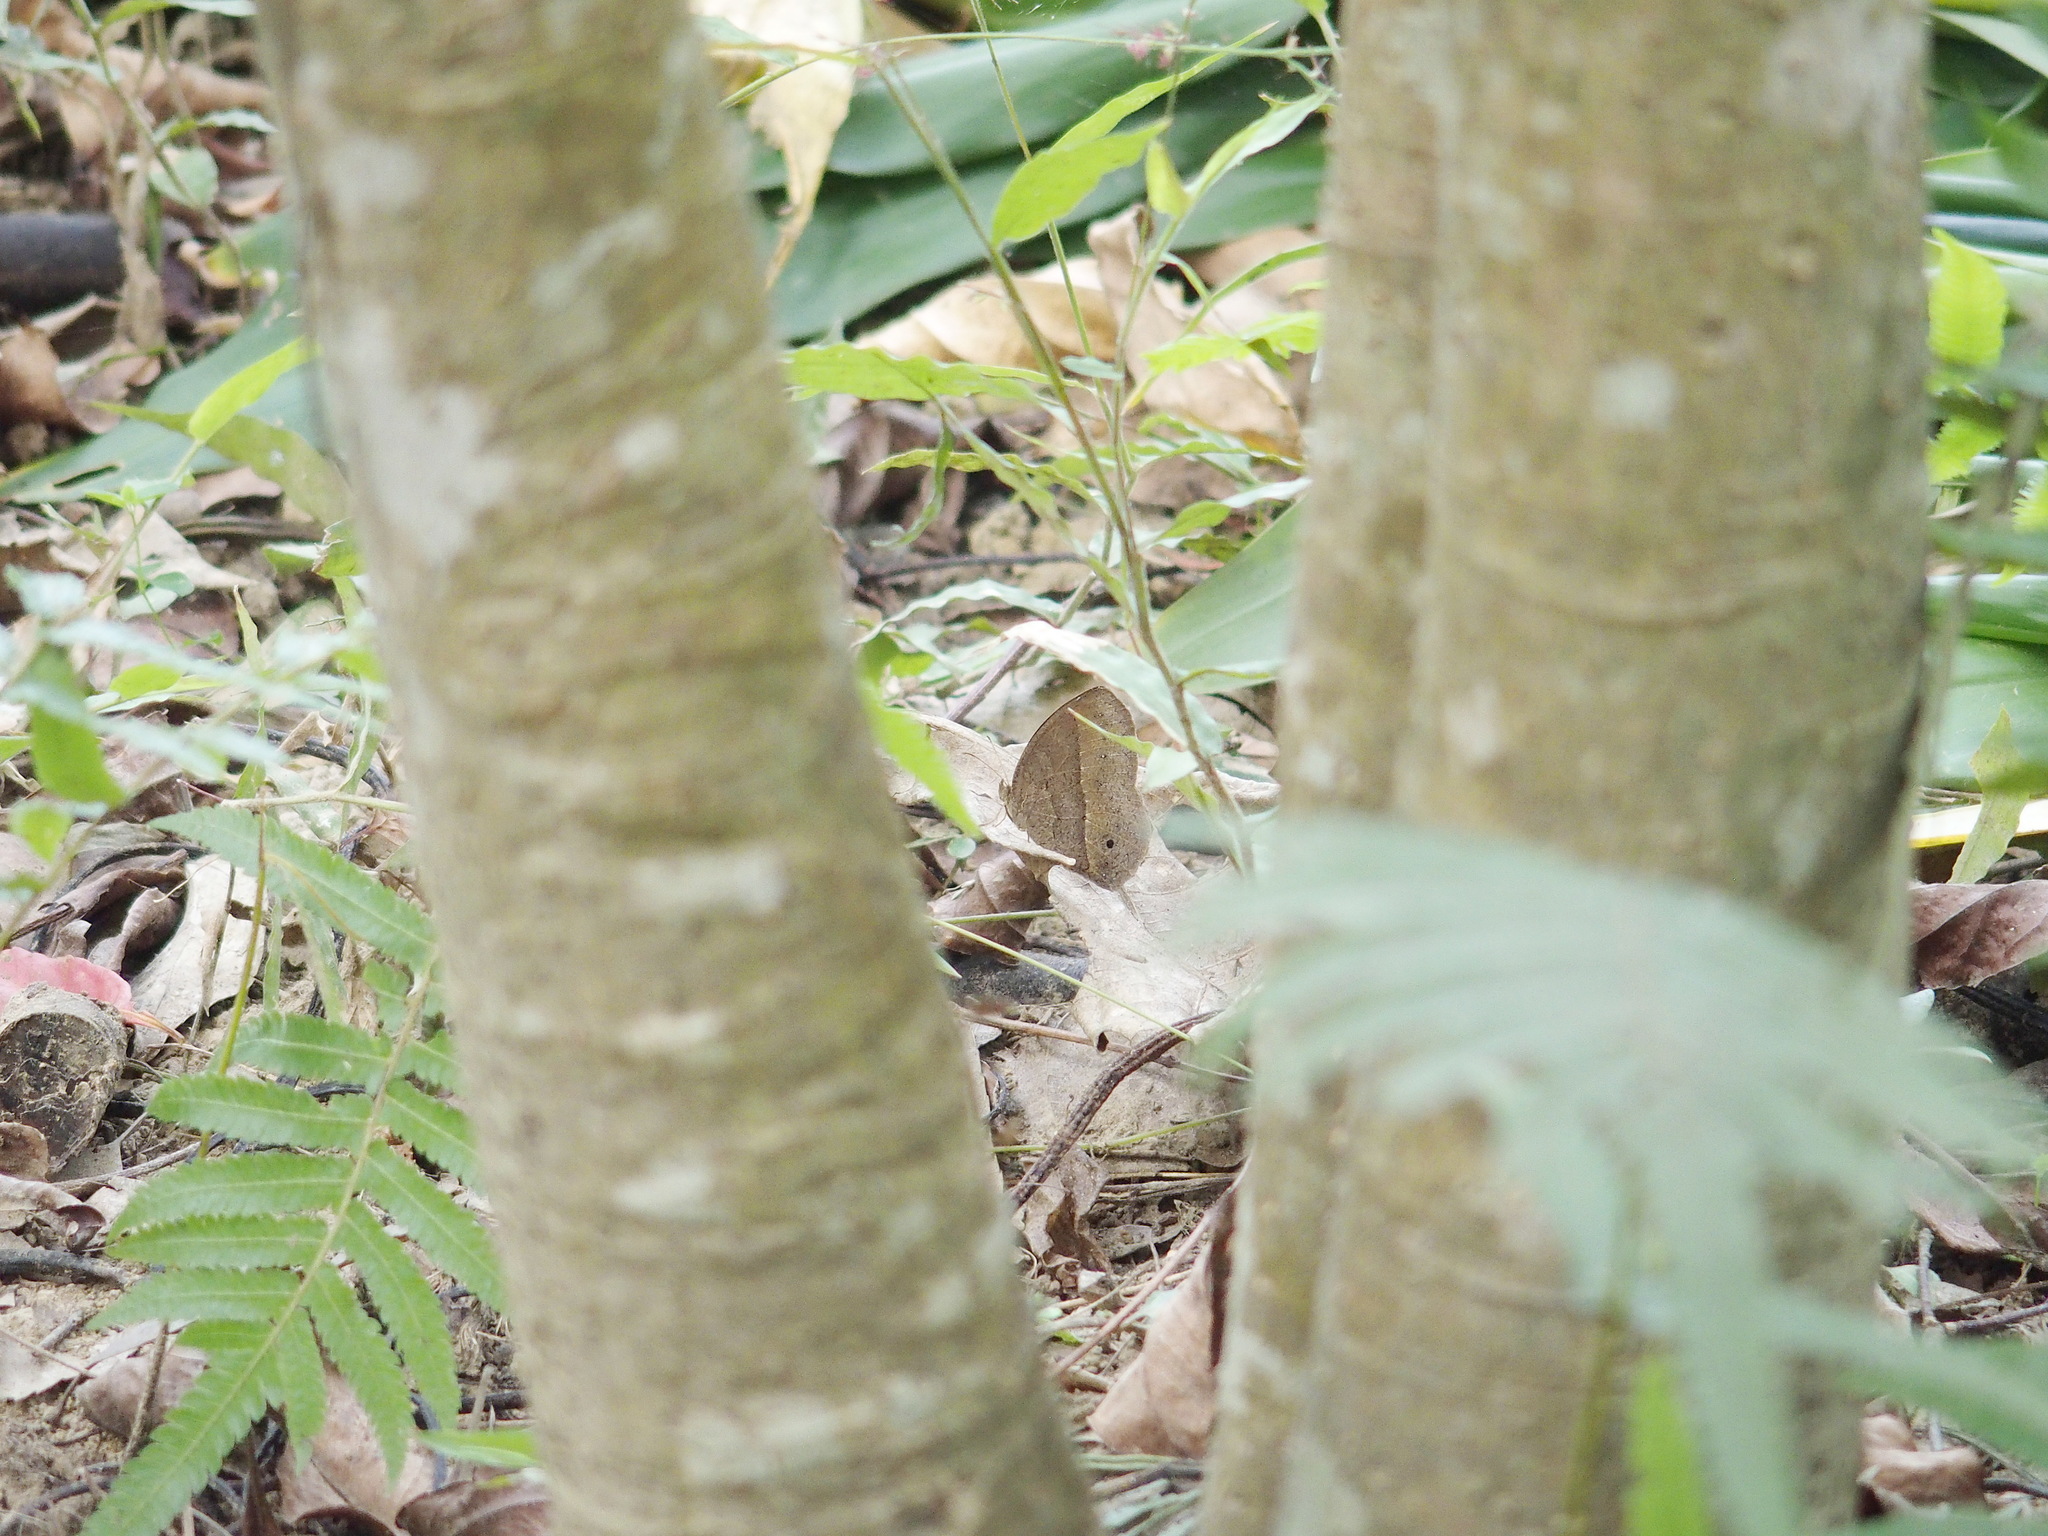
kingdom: Animalia
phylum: Arthropoda
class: Insecta
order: Lepidoptera
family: Nymphalidae
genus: Mycalesis
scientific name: Mycalesis horsfieldii
